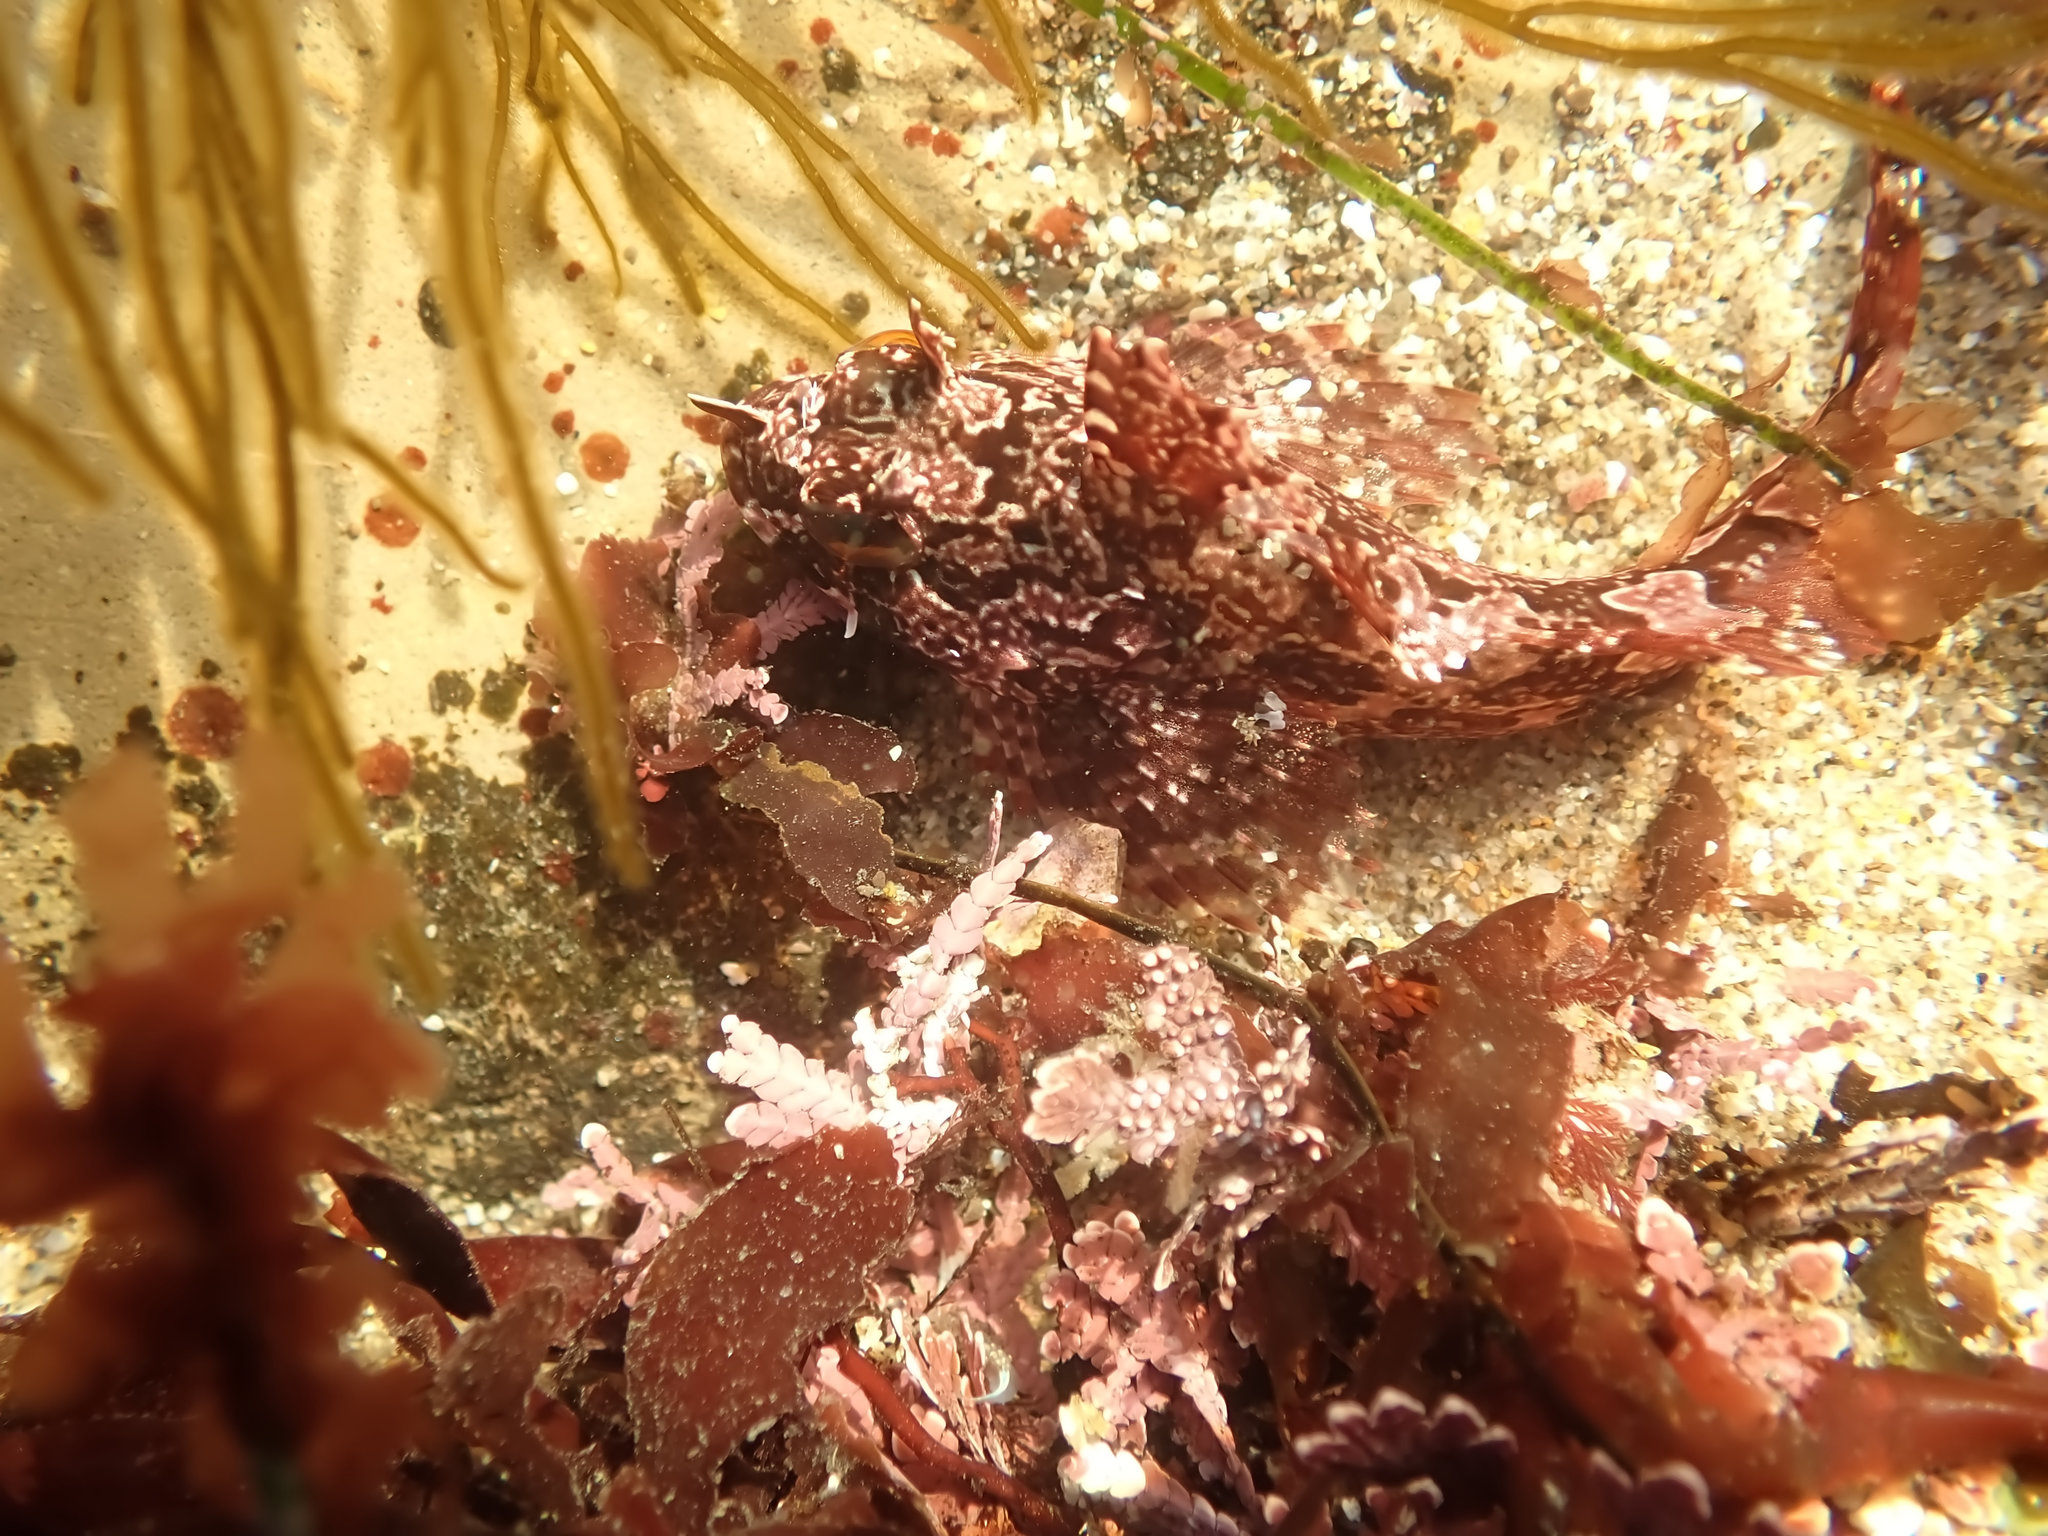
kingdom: Animalia
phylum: Chordata
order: Scorpaeniformes
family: Cottidae
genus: Scorpaenichthys
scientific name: Scorpaenichthys marmoratus
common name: Cabezon
